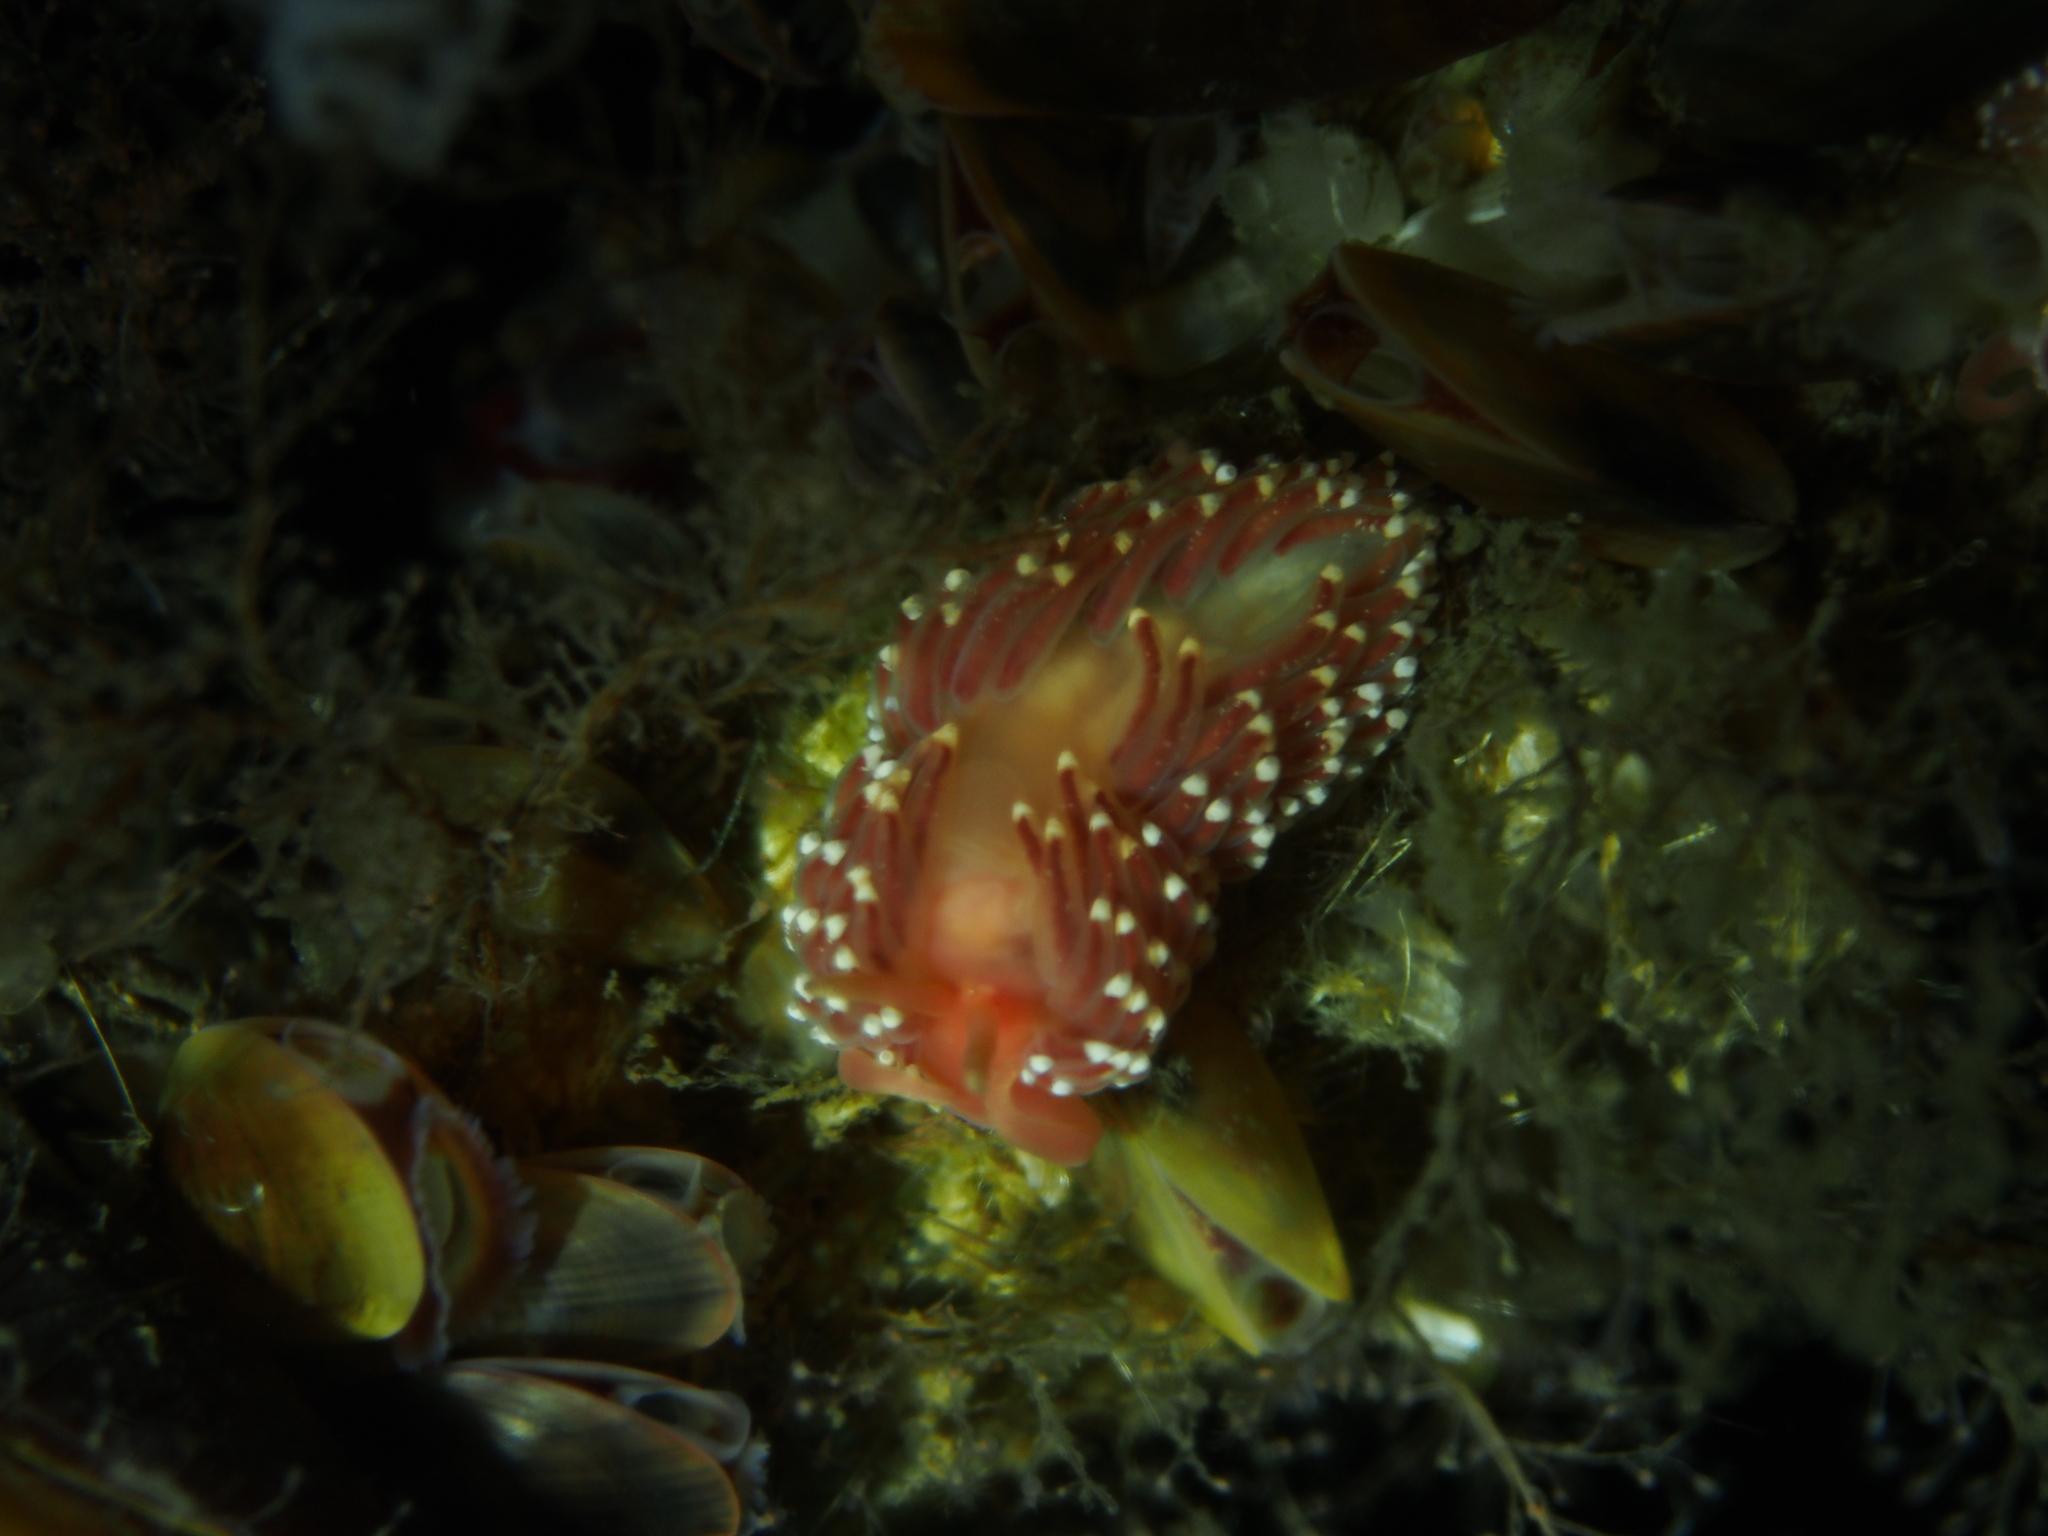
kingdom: Animalia
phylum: Mollusca
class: Gastropoda
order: Nudibranchia
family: Facelinidae
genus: Facelina
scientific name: Facelina bostoniensis
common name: Boston facelina
